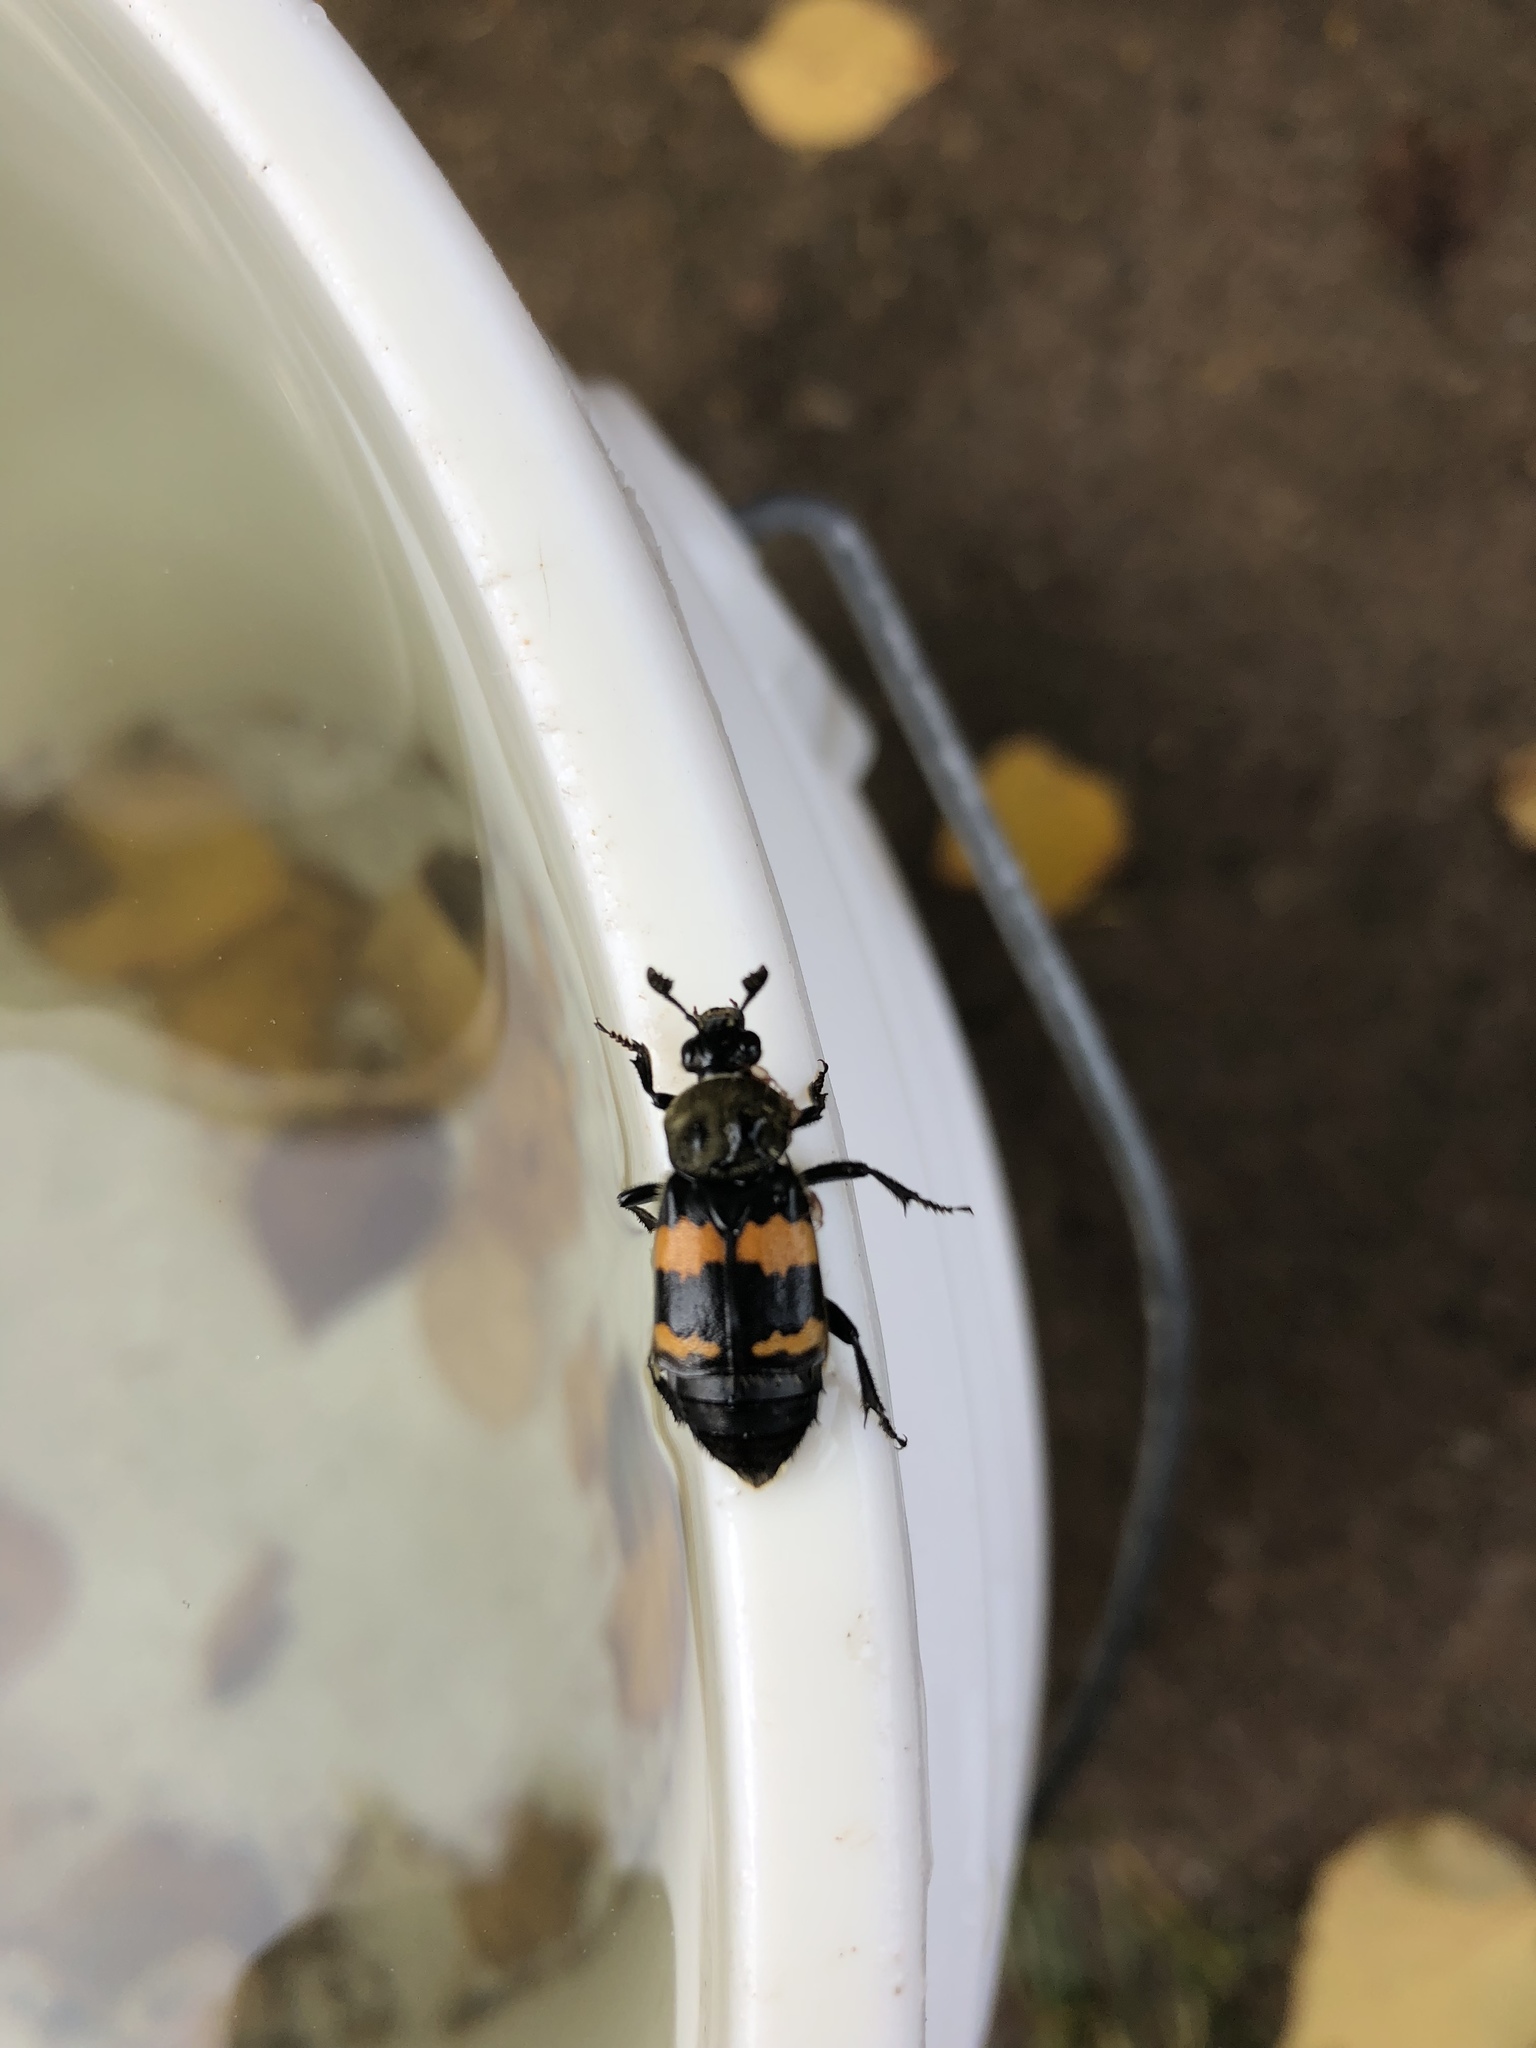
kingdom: Animalia
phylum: Arthropoda
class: Insecta
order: Coleoptera
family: Staphylinidae
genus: Nicrophorus
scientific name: Nicrophorus tomentosus
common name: Tomentose burying beetle
